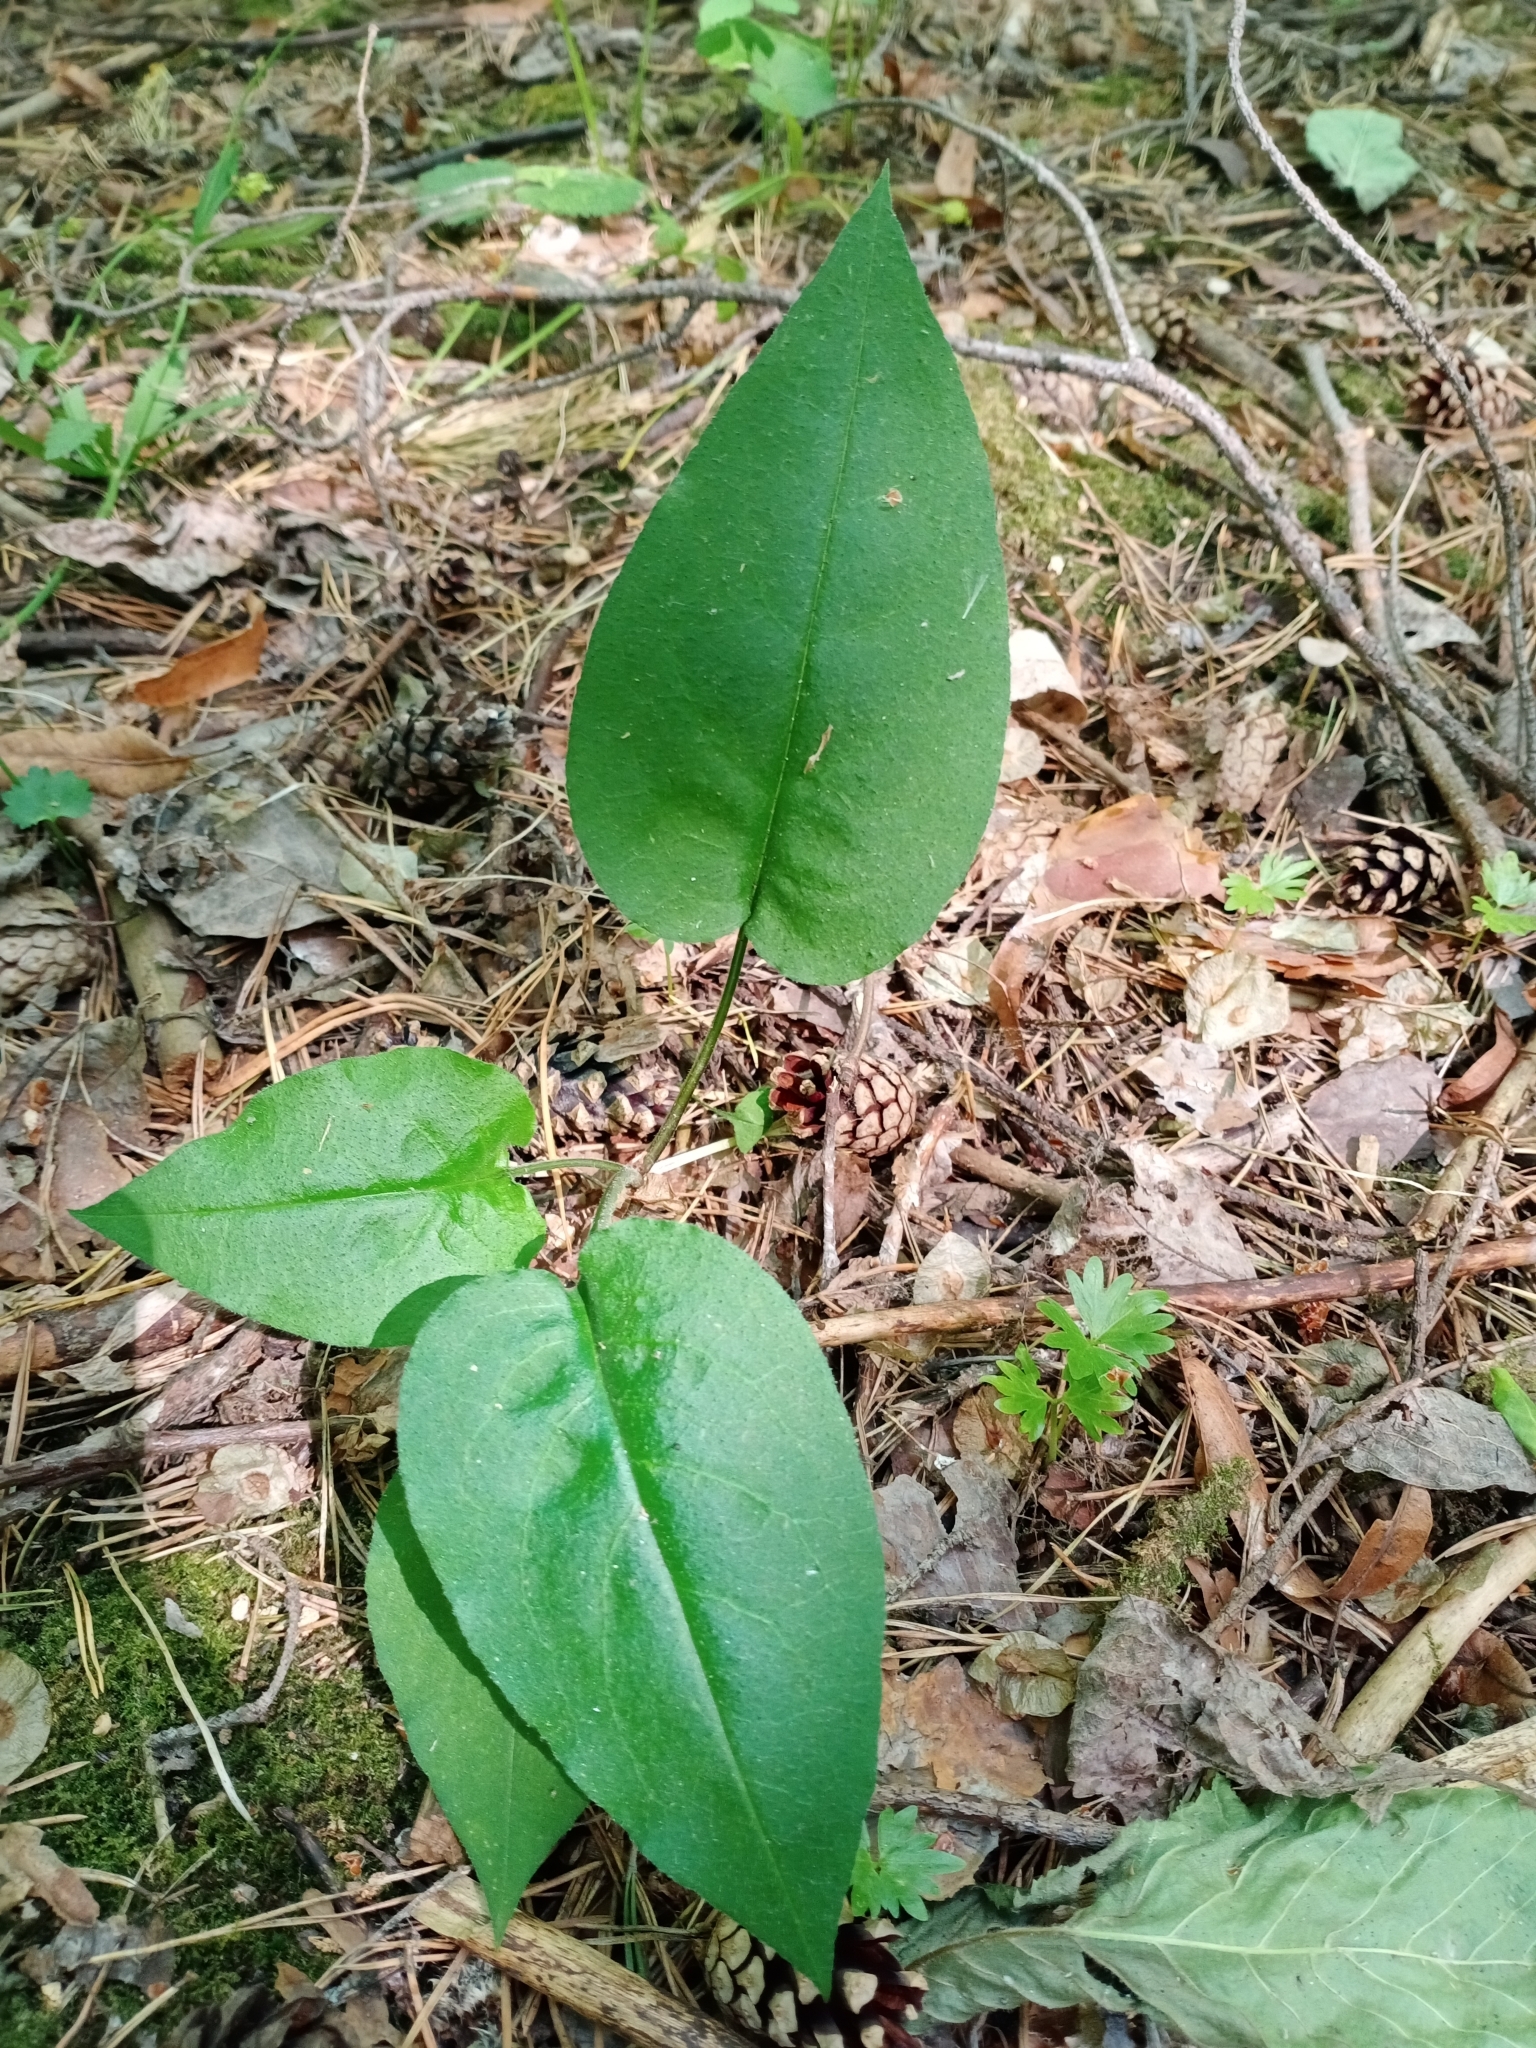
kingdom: Plantae
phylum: Tracheophyta
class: Magnoliopsida
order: Boraginales
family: Boraginaceae
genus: Pulmonaria
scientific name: Pulmonaria obscura
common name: Suffolk lungwort
